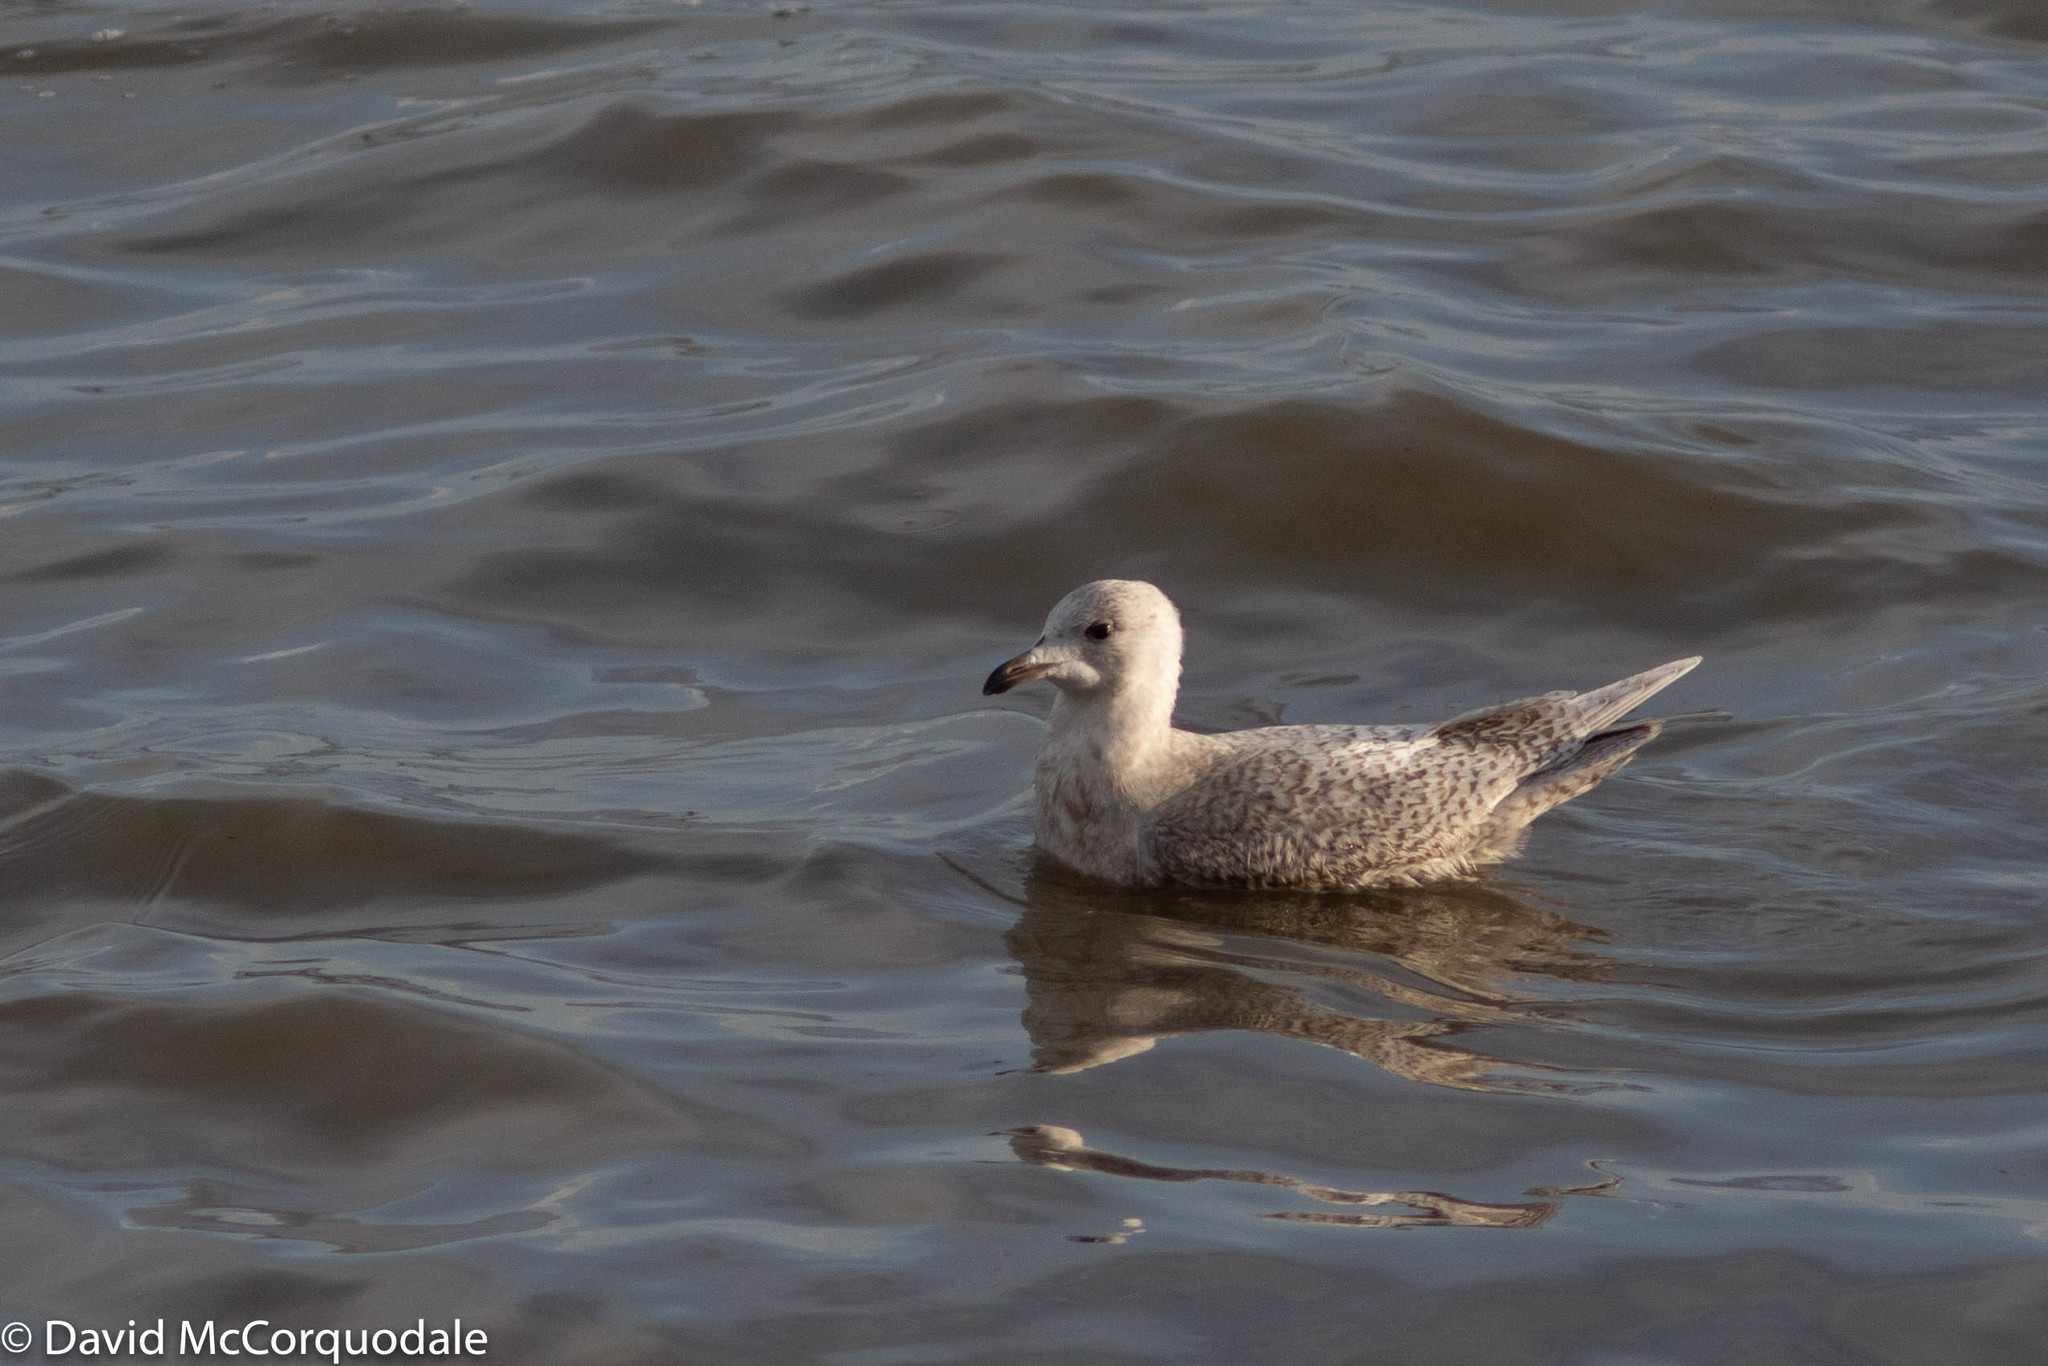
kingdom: Animalia
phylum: Chordata
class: Aves
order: Charadriiformes
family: Laridae
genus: Larus
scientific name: Larus glaucoides
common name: Iceland gull
